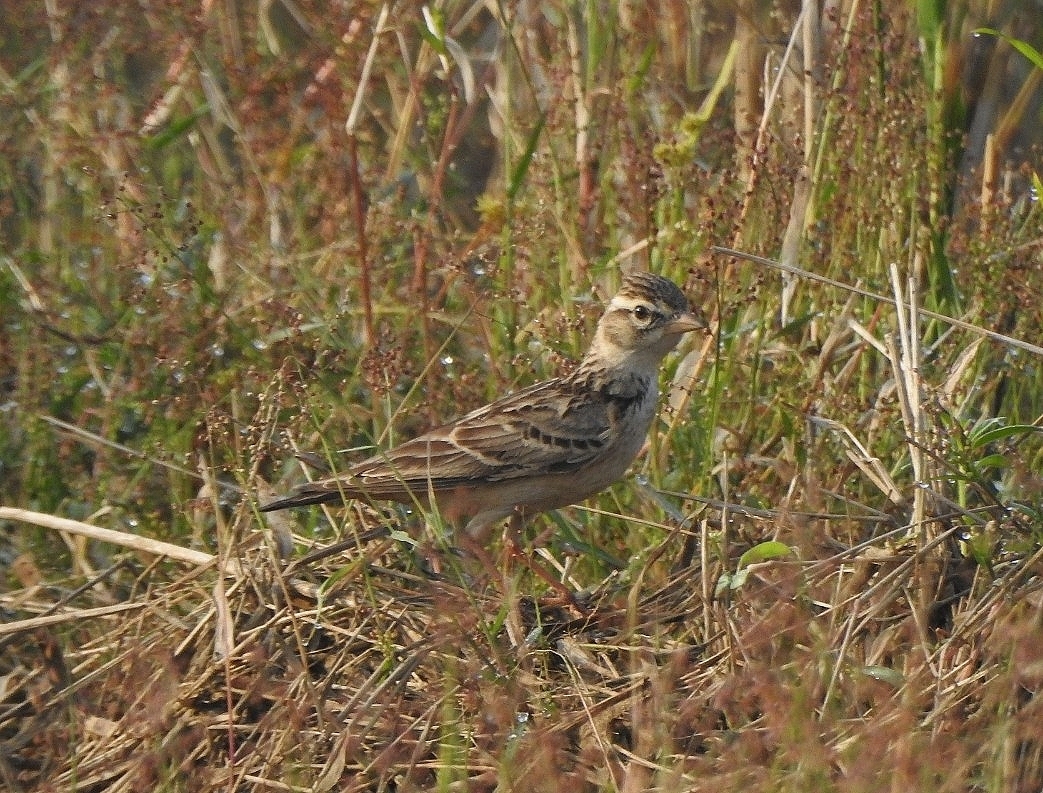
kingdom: Animalia
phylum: Chordata
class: Aves
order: Passeriformes
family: Alaudidae
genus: Calandrella
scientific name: Calandrella brachydactyla
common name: Greater short-toed lark
